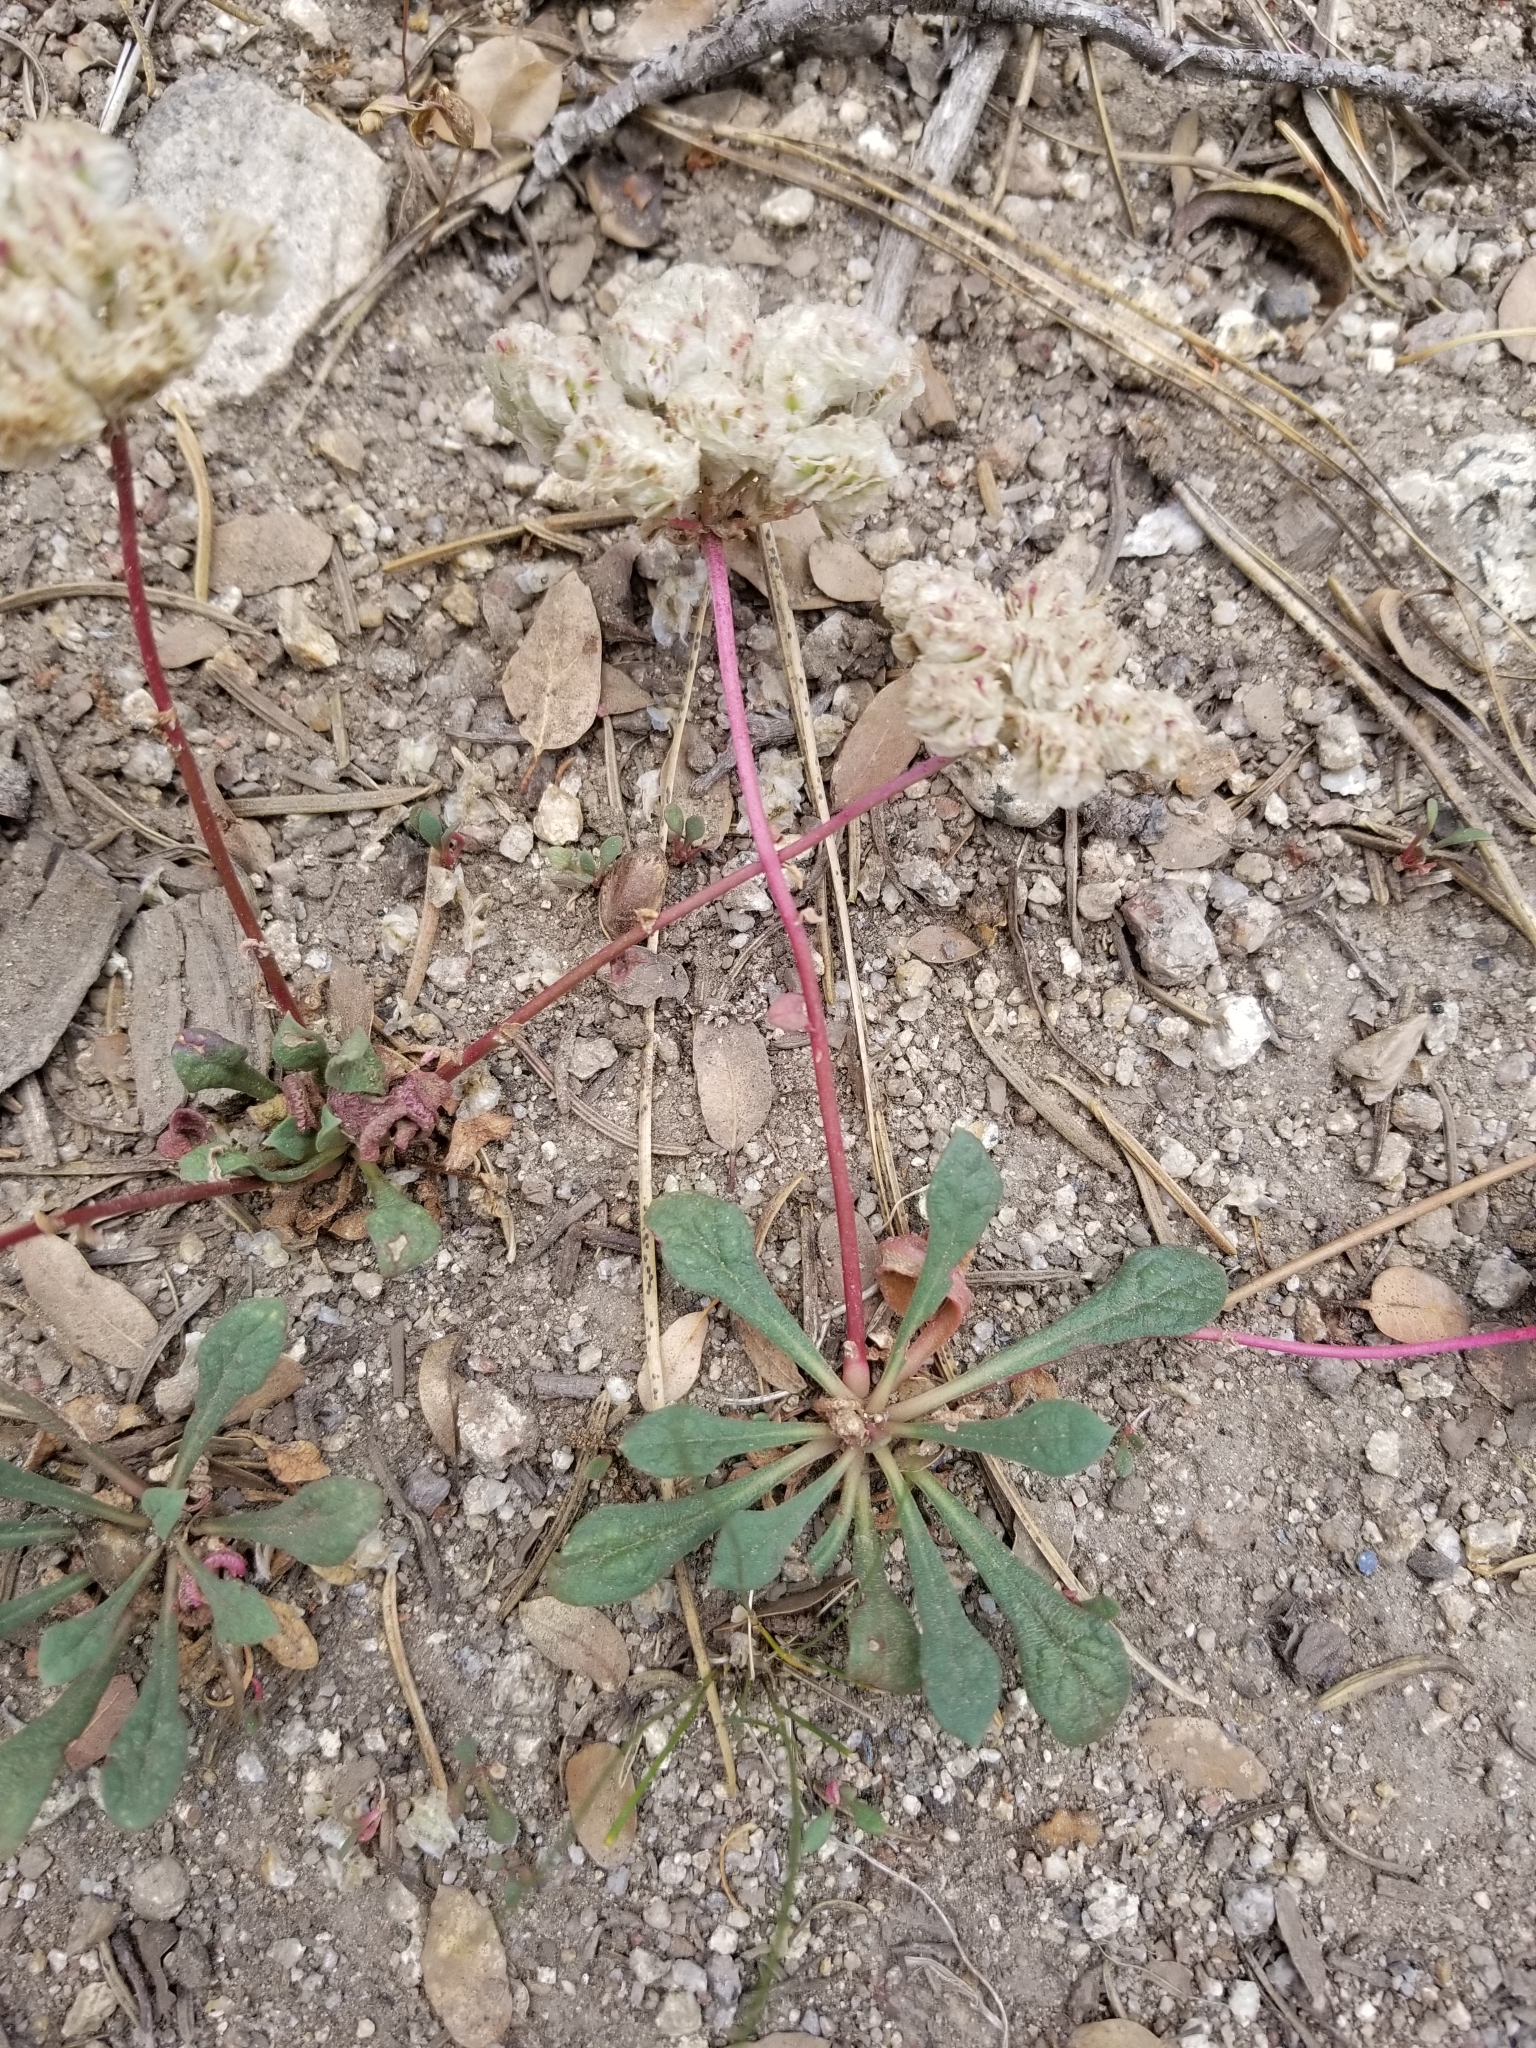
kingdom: Plantae
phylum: Tracheophyta
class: Magnoliopsida
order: Caryophyllales
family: Montiaceae
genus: Calyptridium
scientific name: Calyptridium monospermum
